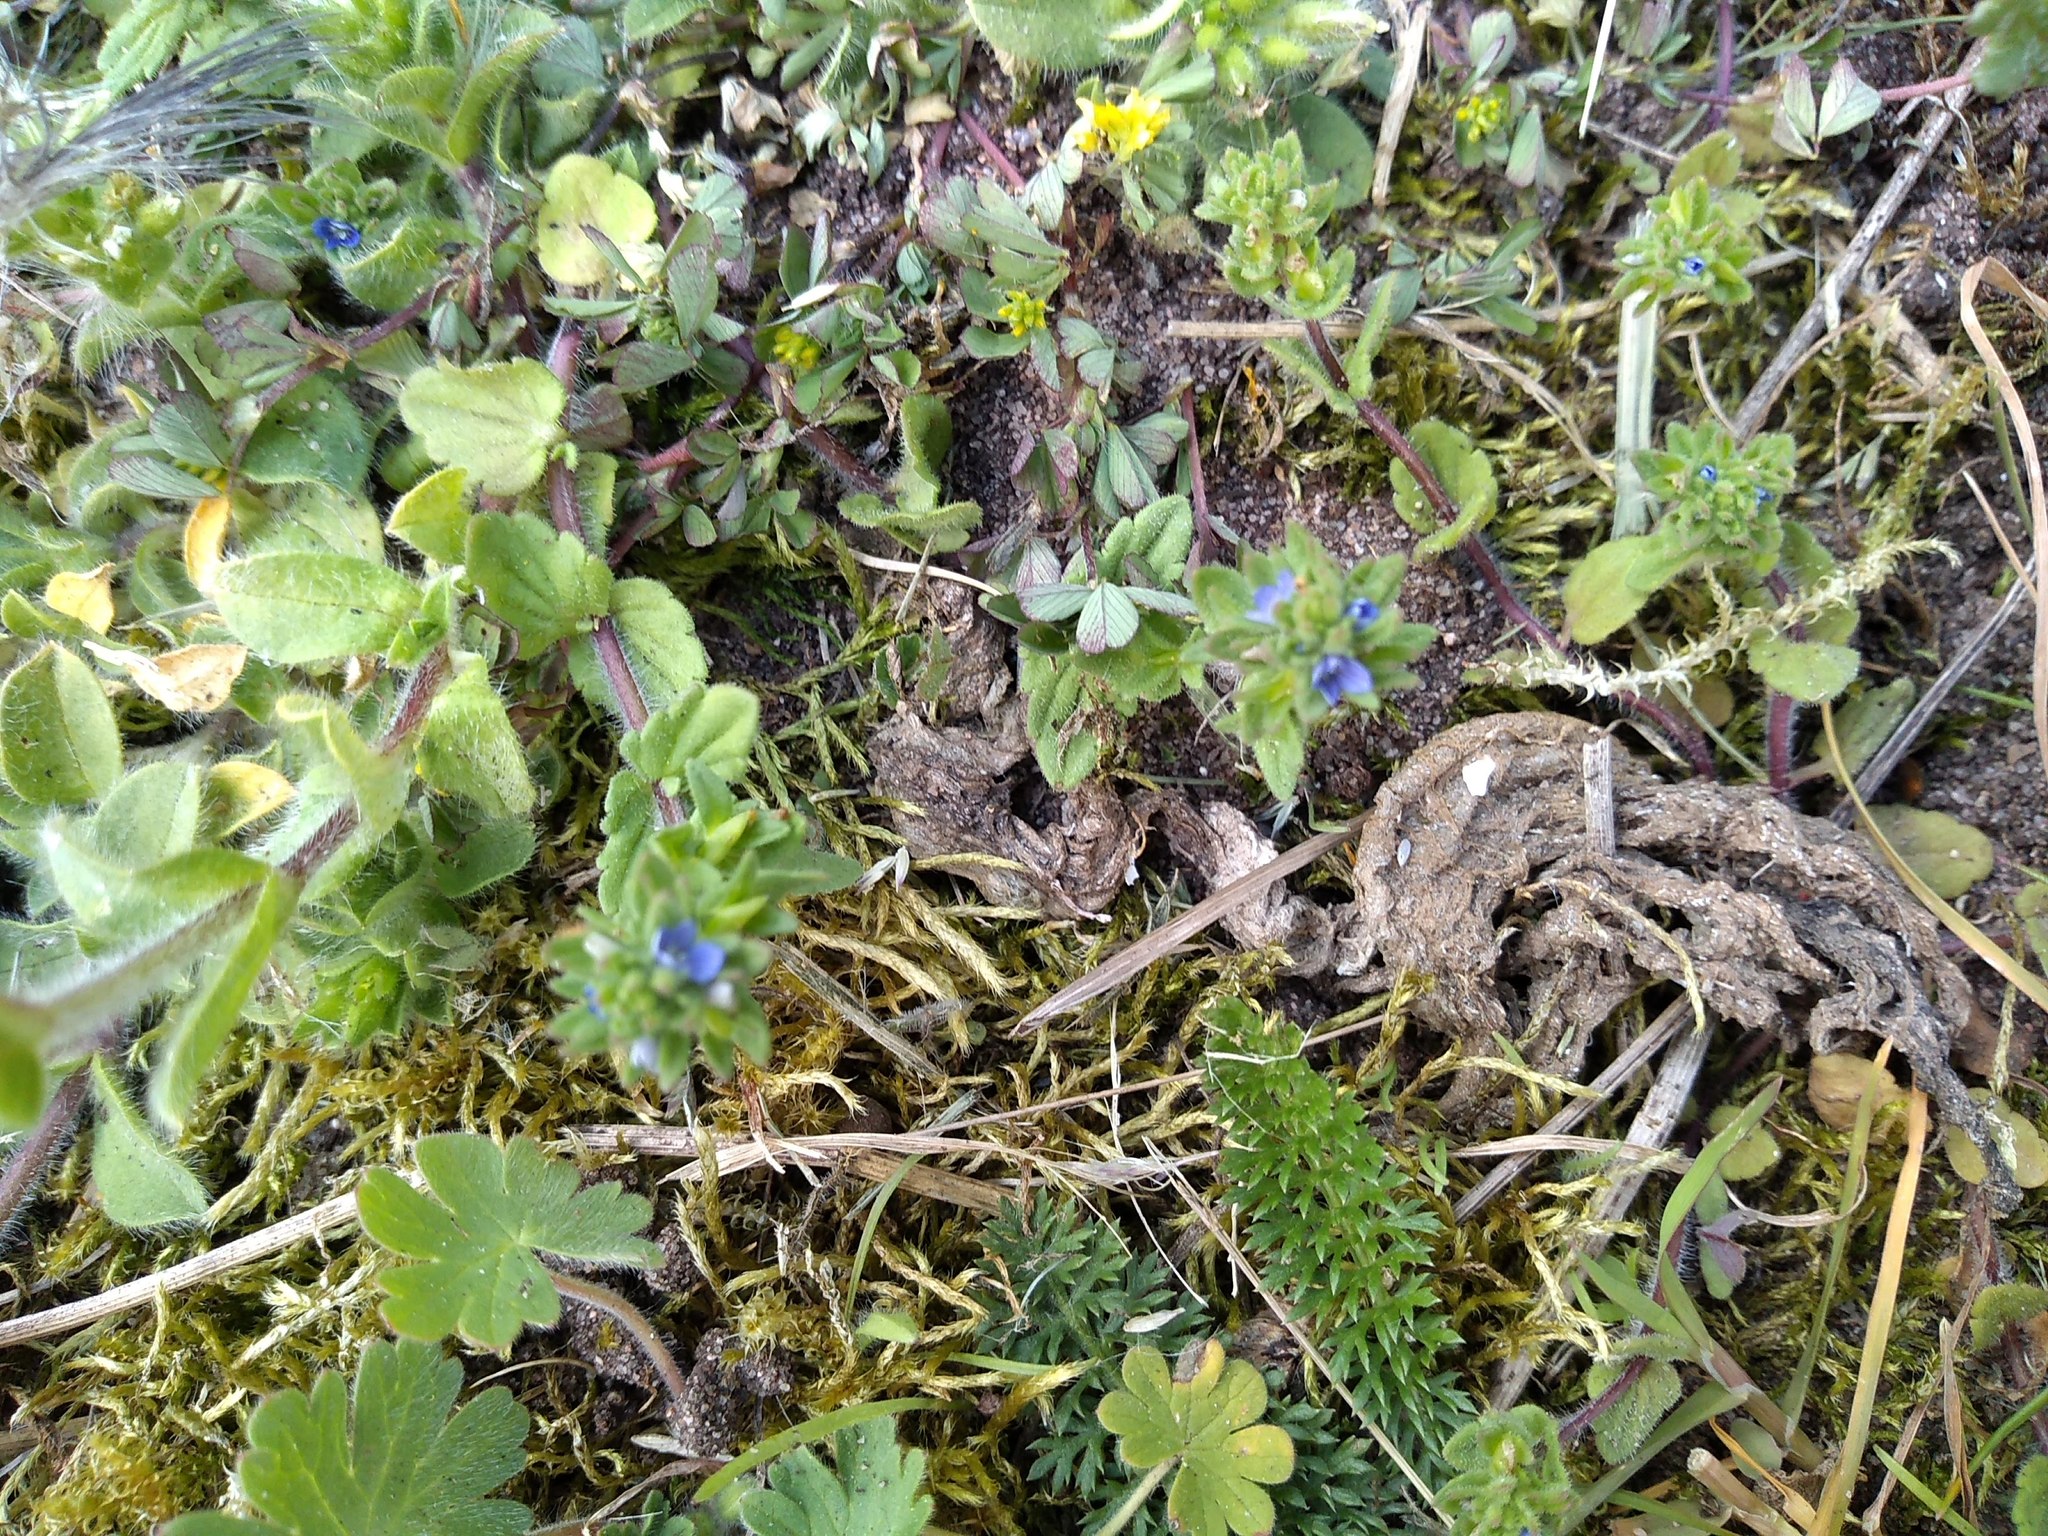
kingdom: Plantae
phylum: Tracheophyta
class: Magnoliopsida
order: Lamiales
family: Plantaginaceae
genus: Veronica
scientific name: Veronica arvensis
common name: Corn speedwell
